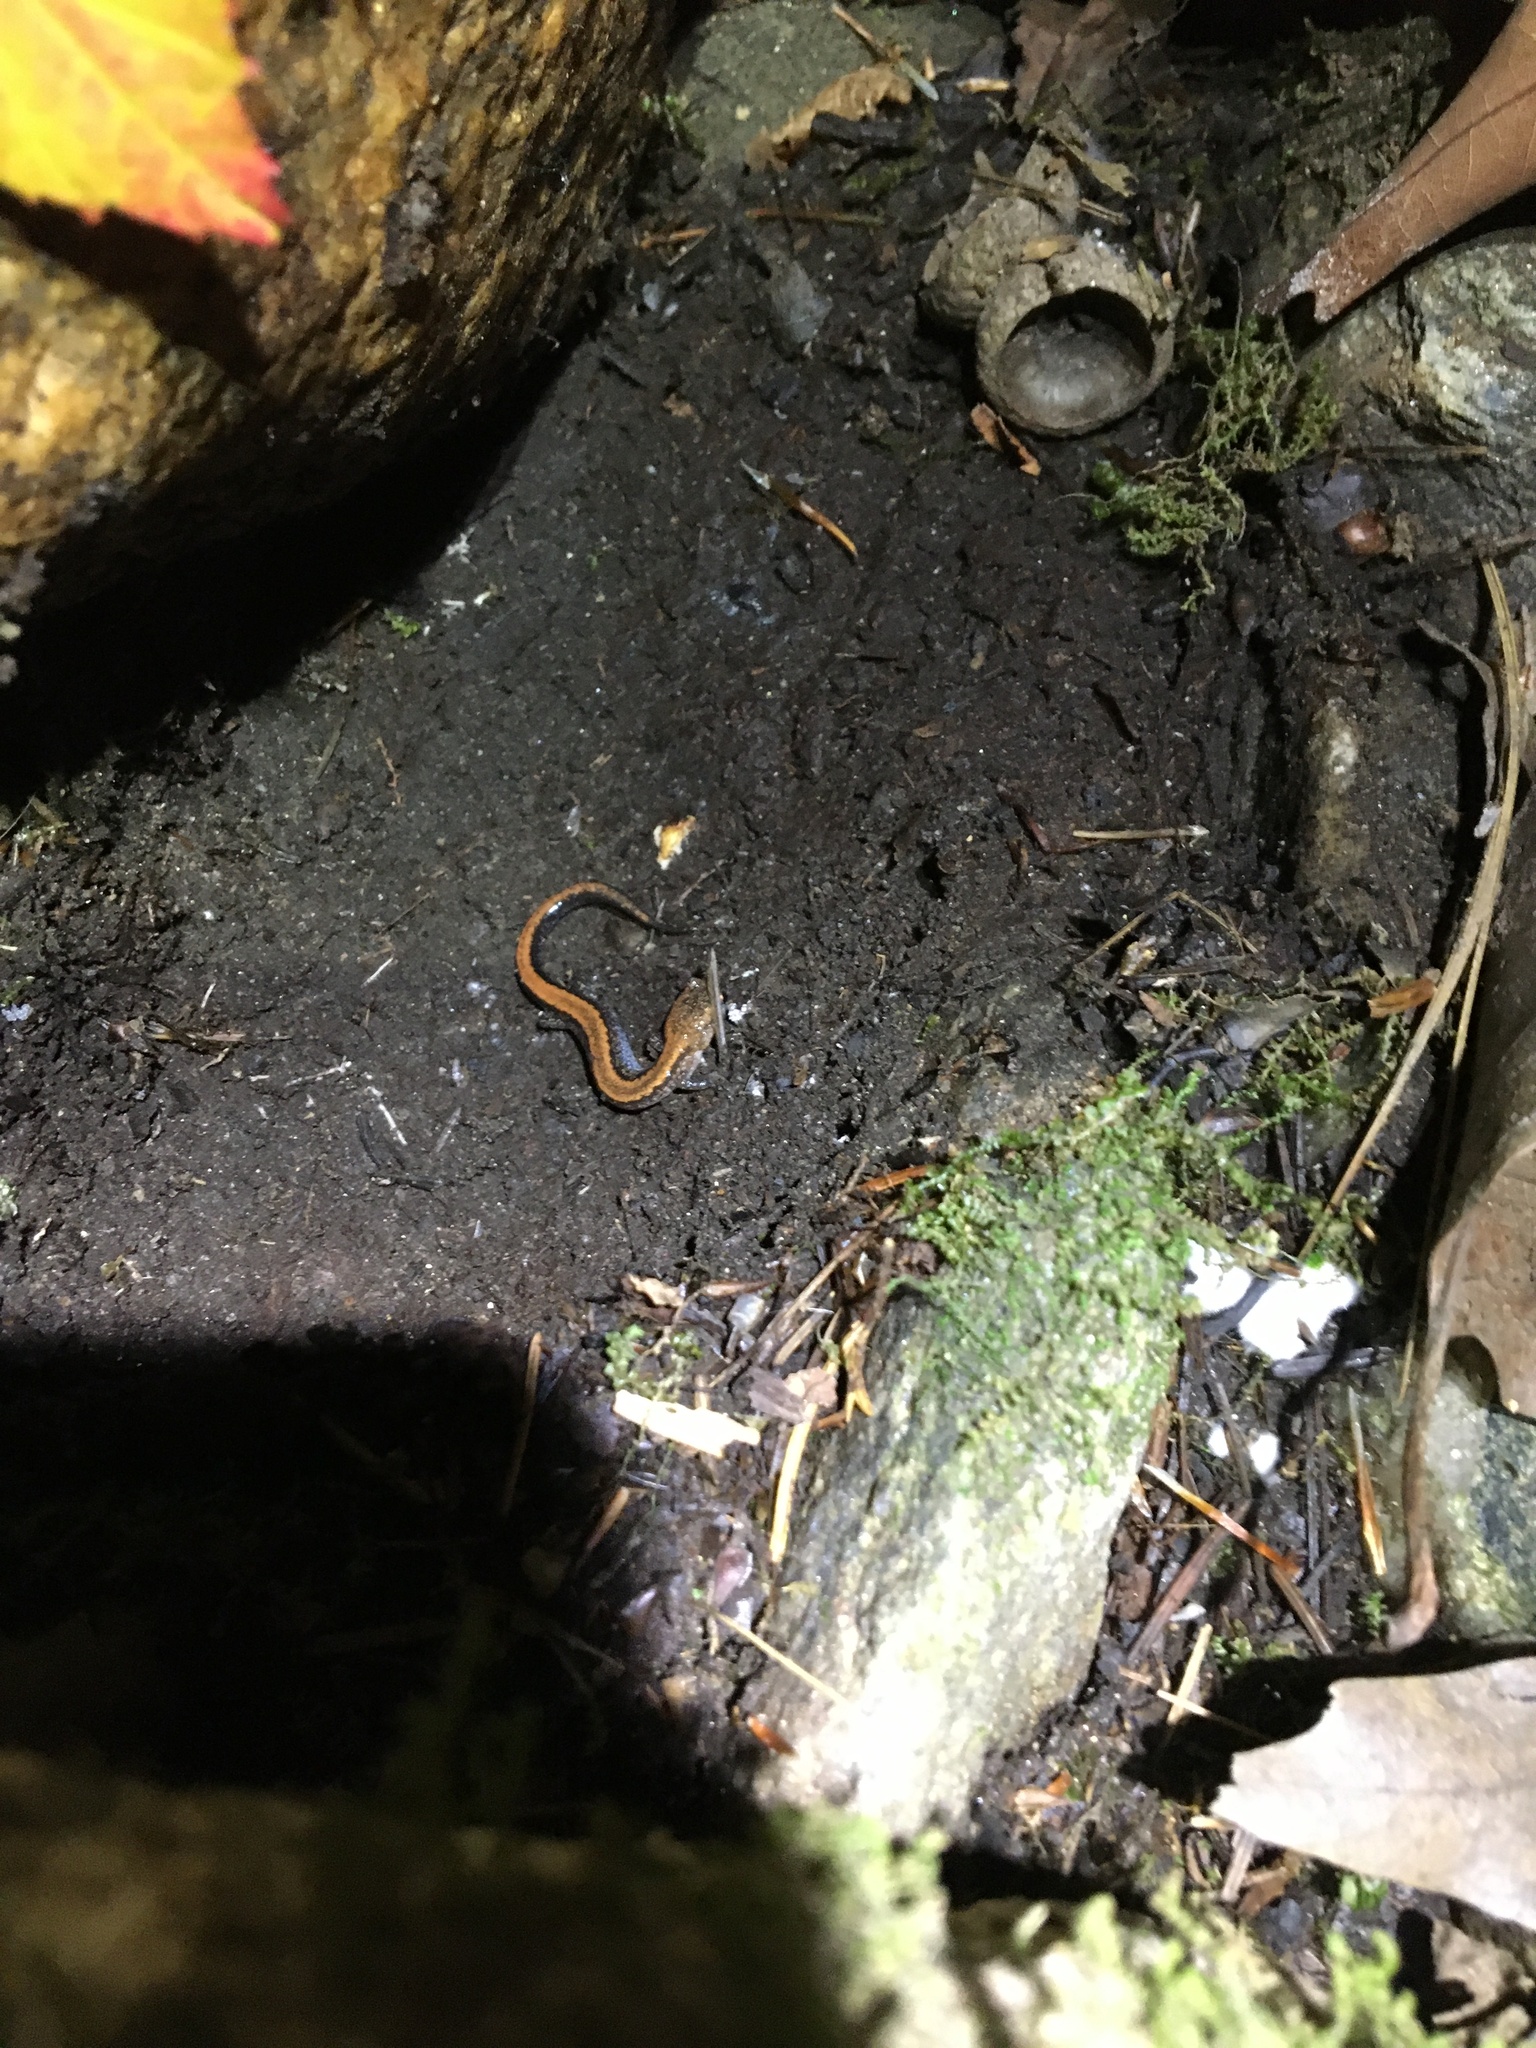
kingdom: Animalia
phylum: Chordata
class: Amphibia
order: Caudata
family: Plethodontidae
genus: Plethodon
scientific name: Plethodon cinereus
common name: Redback salamander
